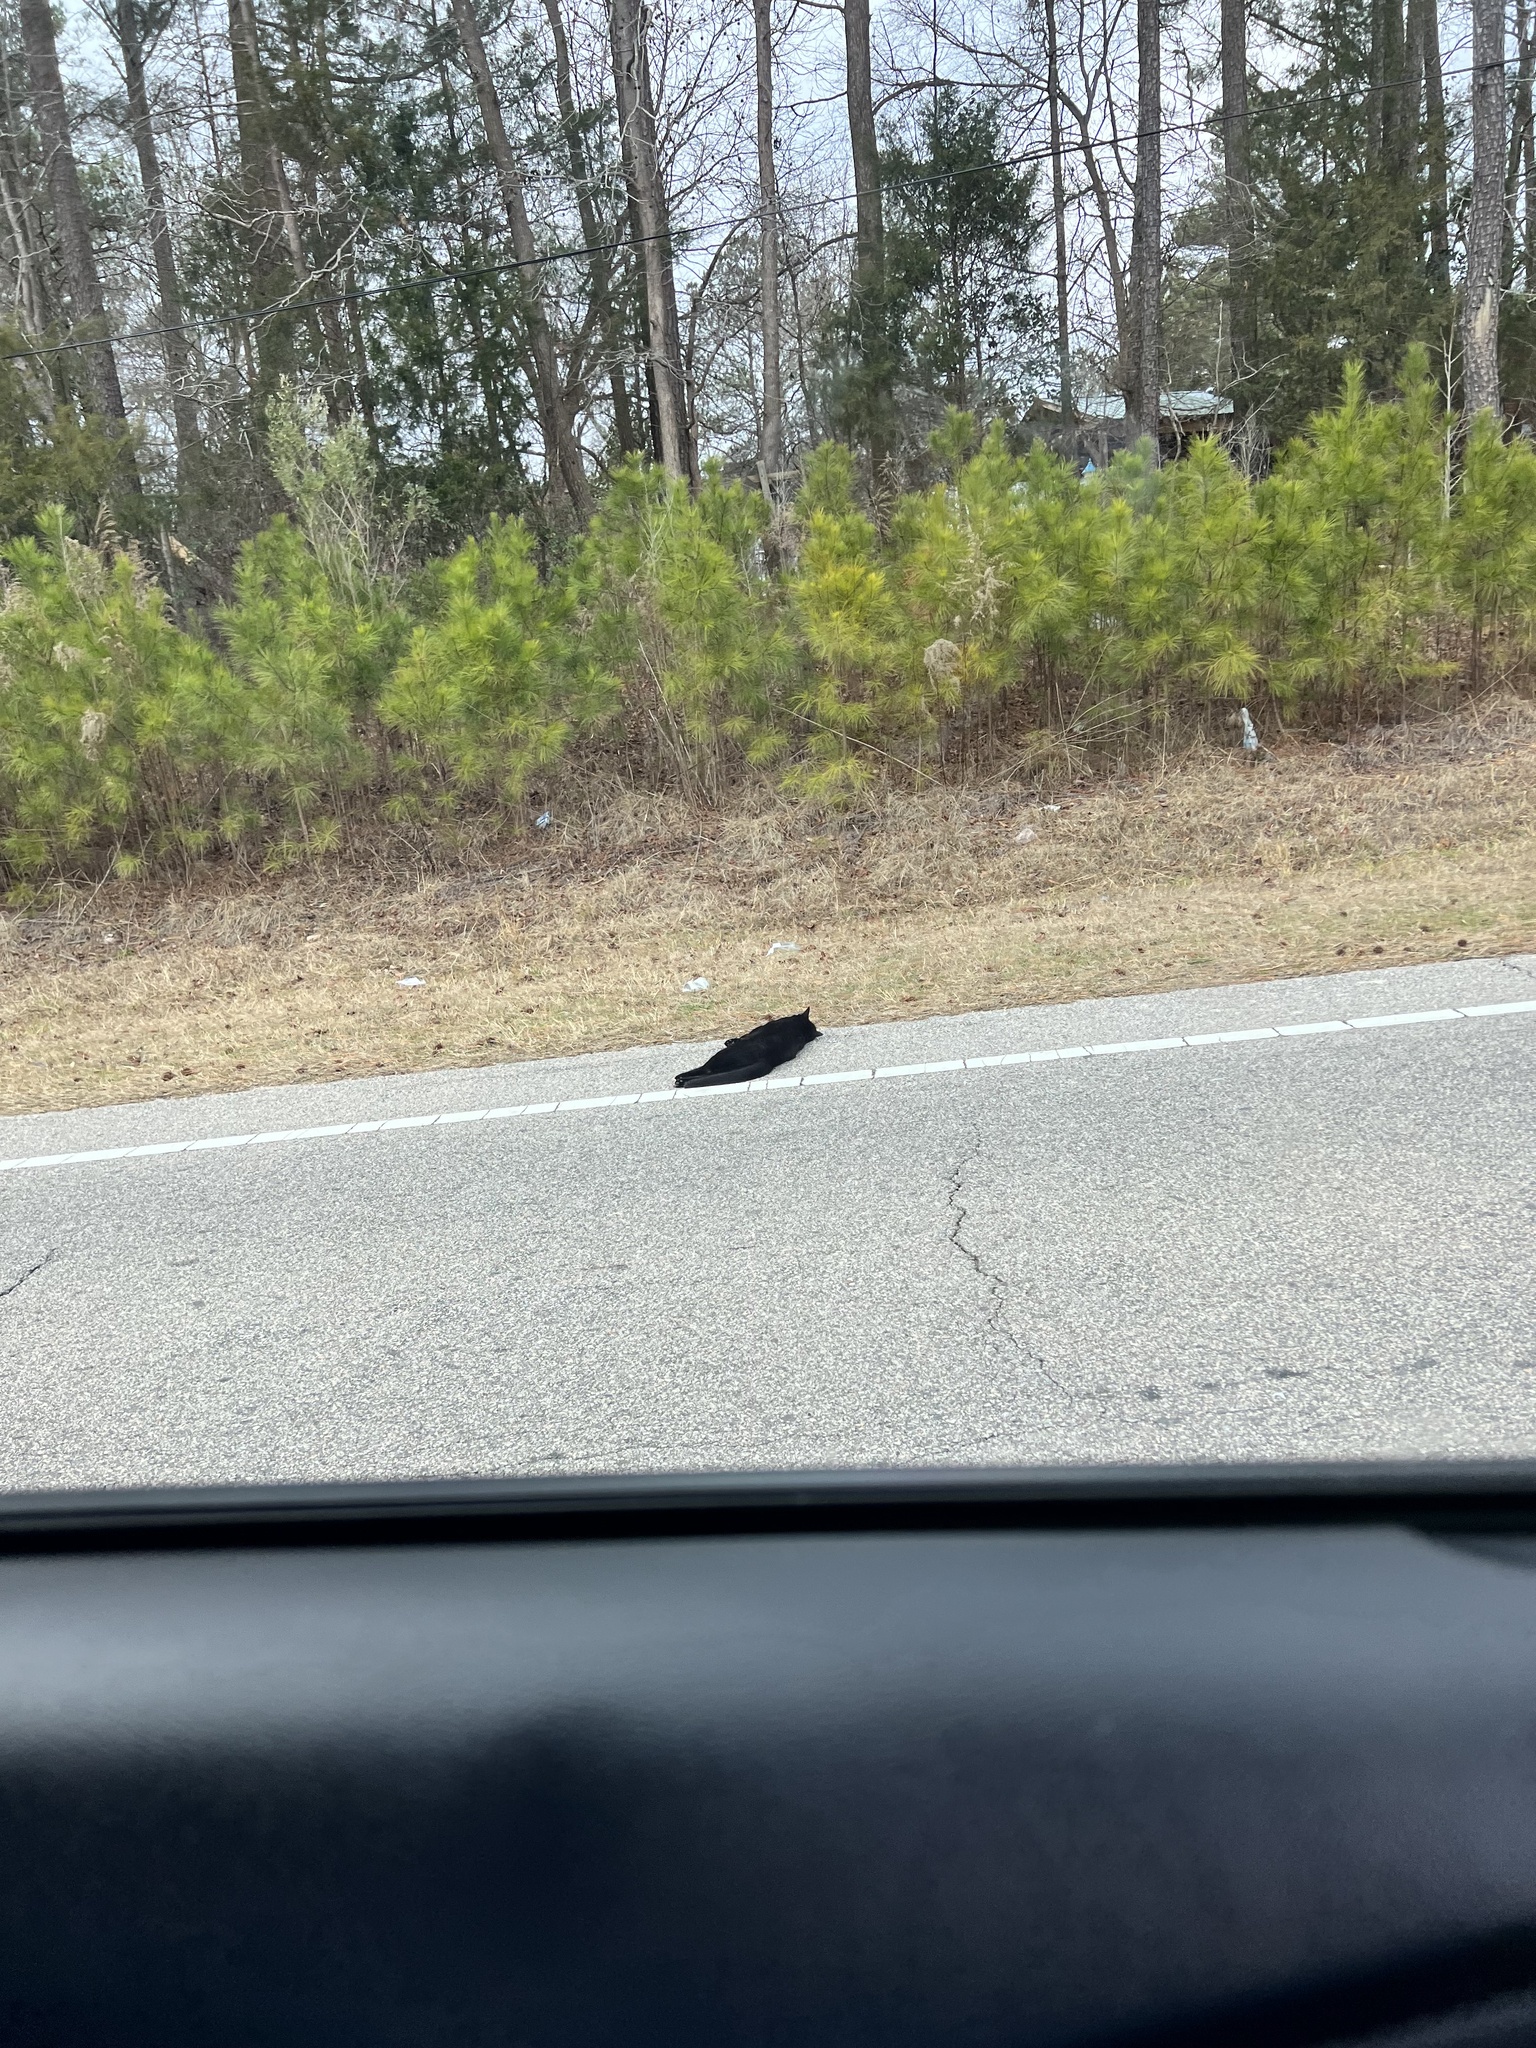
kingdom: Animalia
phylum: Chordata
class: Mammalia
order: Carnivora
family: Felidae
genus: Felis
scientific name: Felis catus
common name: Domestic cat
